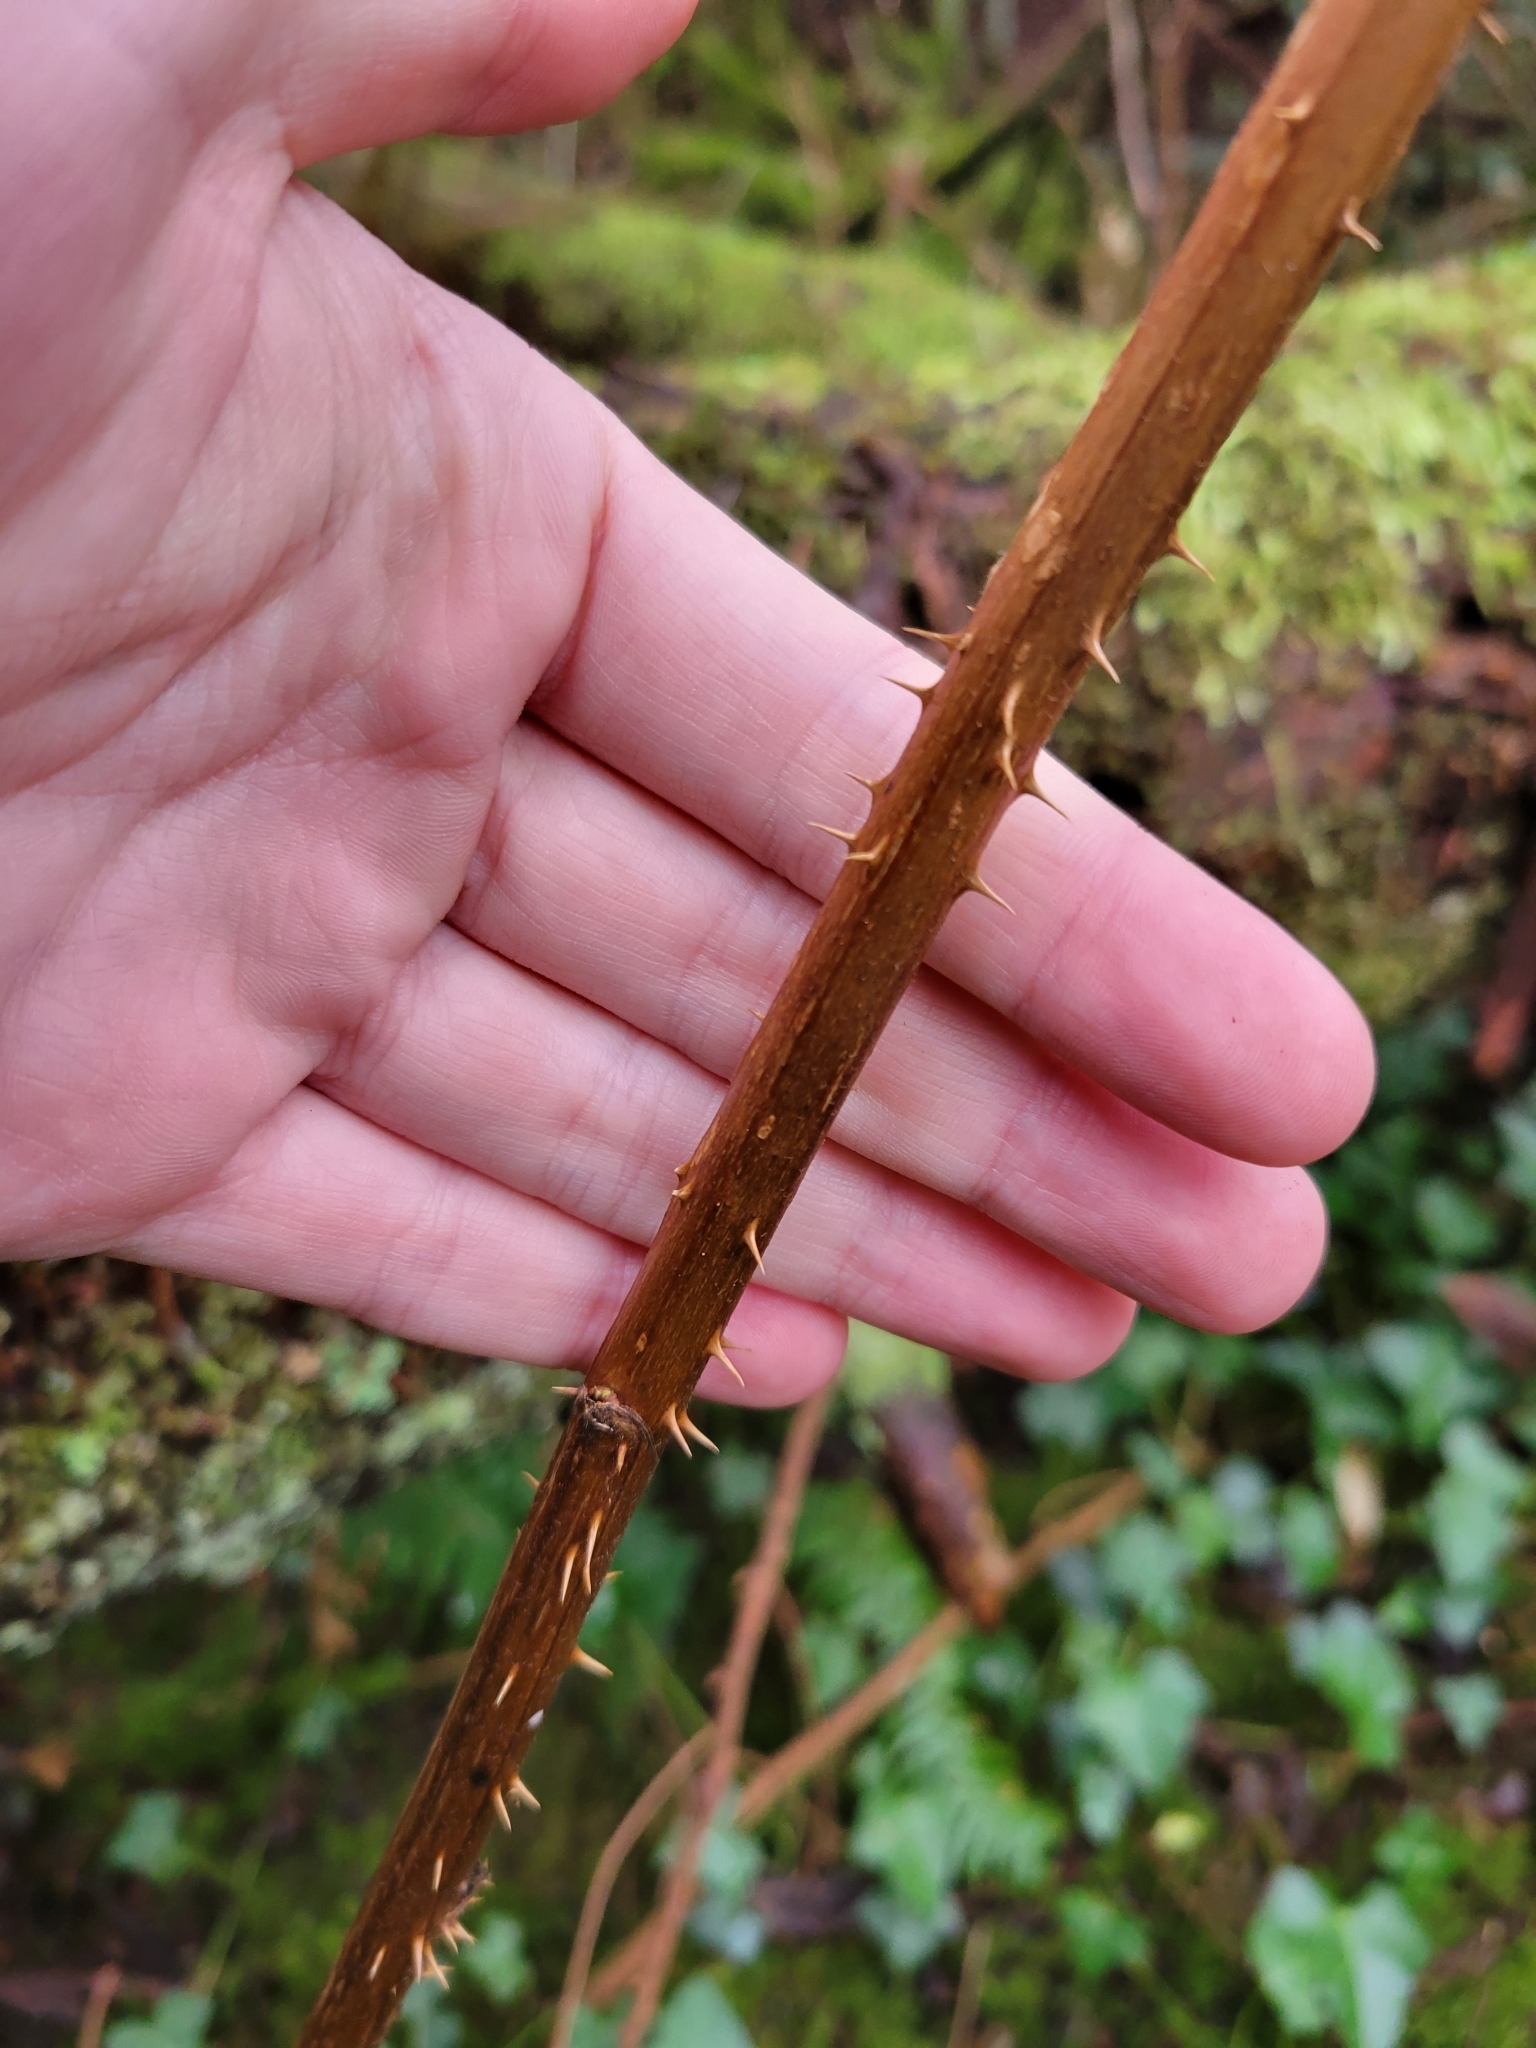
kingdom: Plantae
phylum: Tracheophyta
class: Magnoliopsida
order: Rosales
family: Rosaceae
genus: Rubus
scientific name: Rubus spectabilis
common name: Salmonberry
